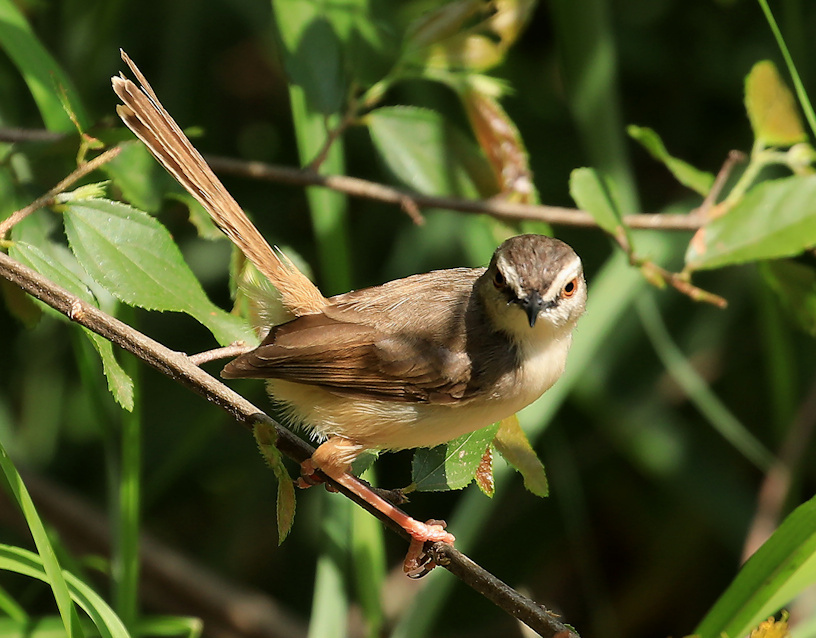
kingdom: Animalia
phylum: Chordata
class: Aves
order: Passeriformes
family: Cisticolidae
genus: Prinia
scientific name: Prinia subflava
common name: Tawny-flanked prinia
